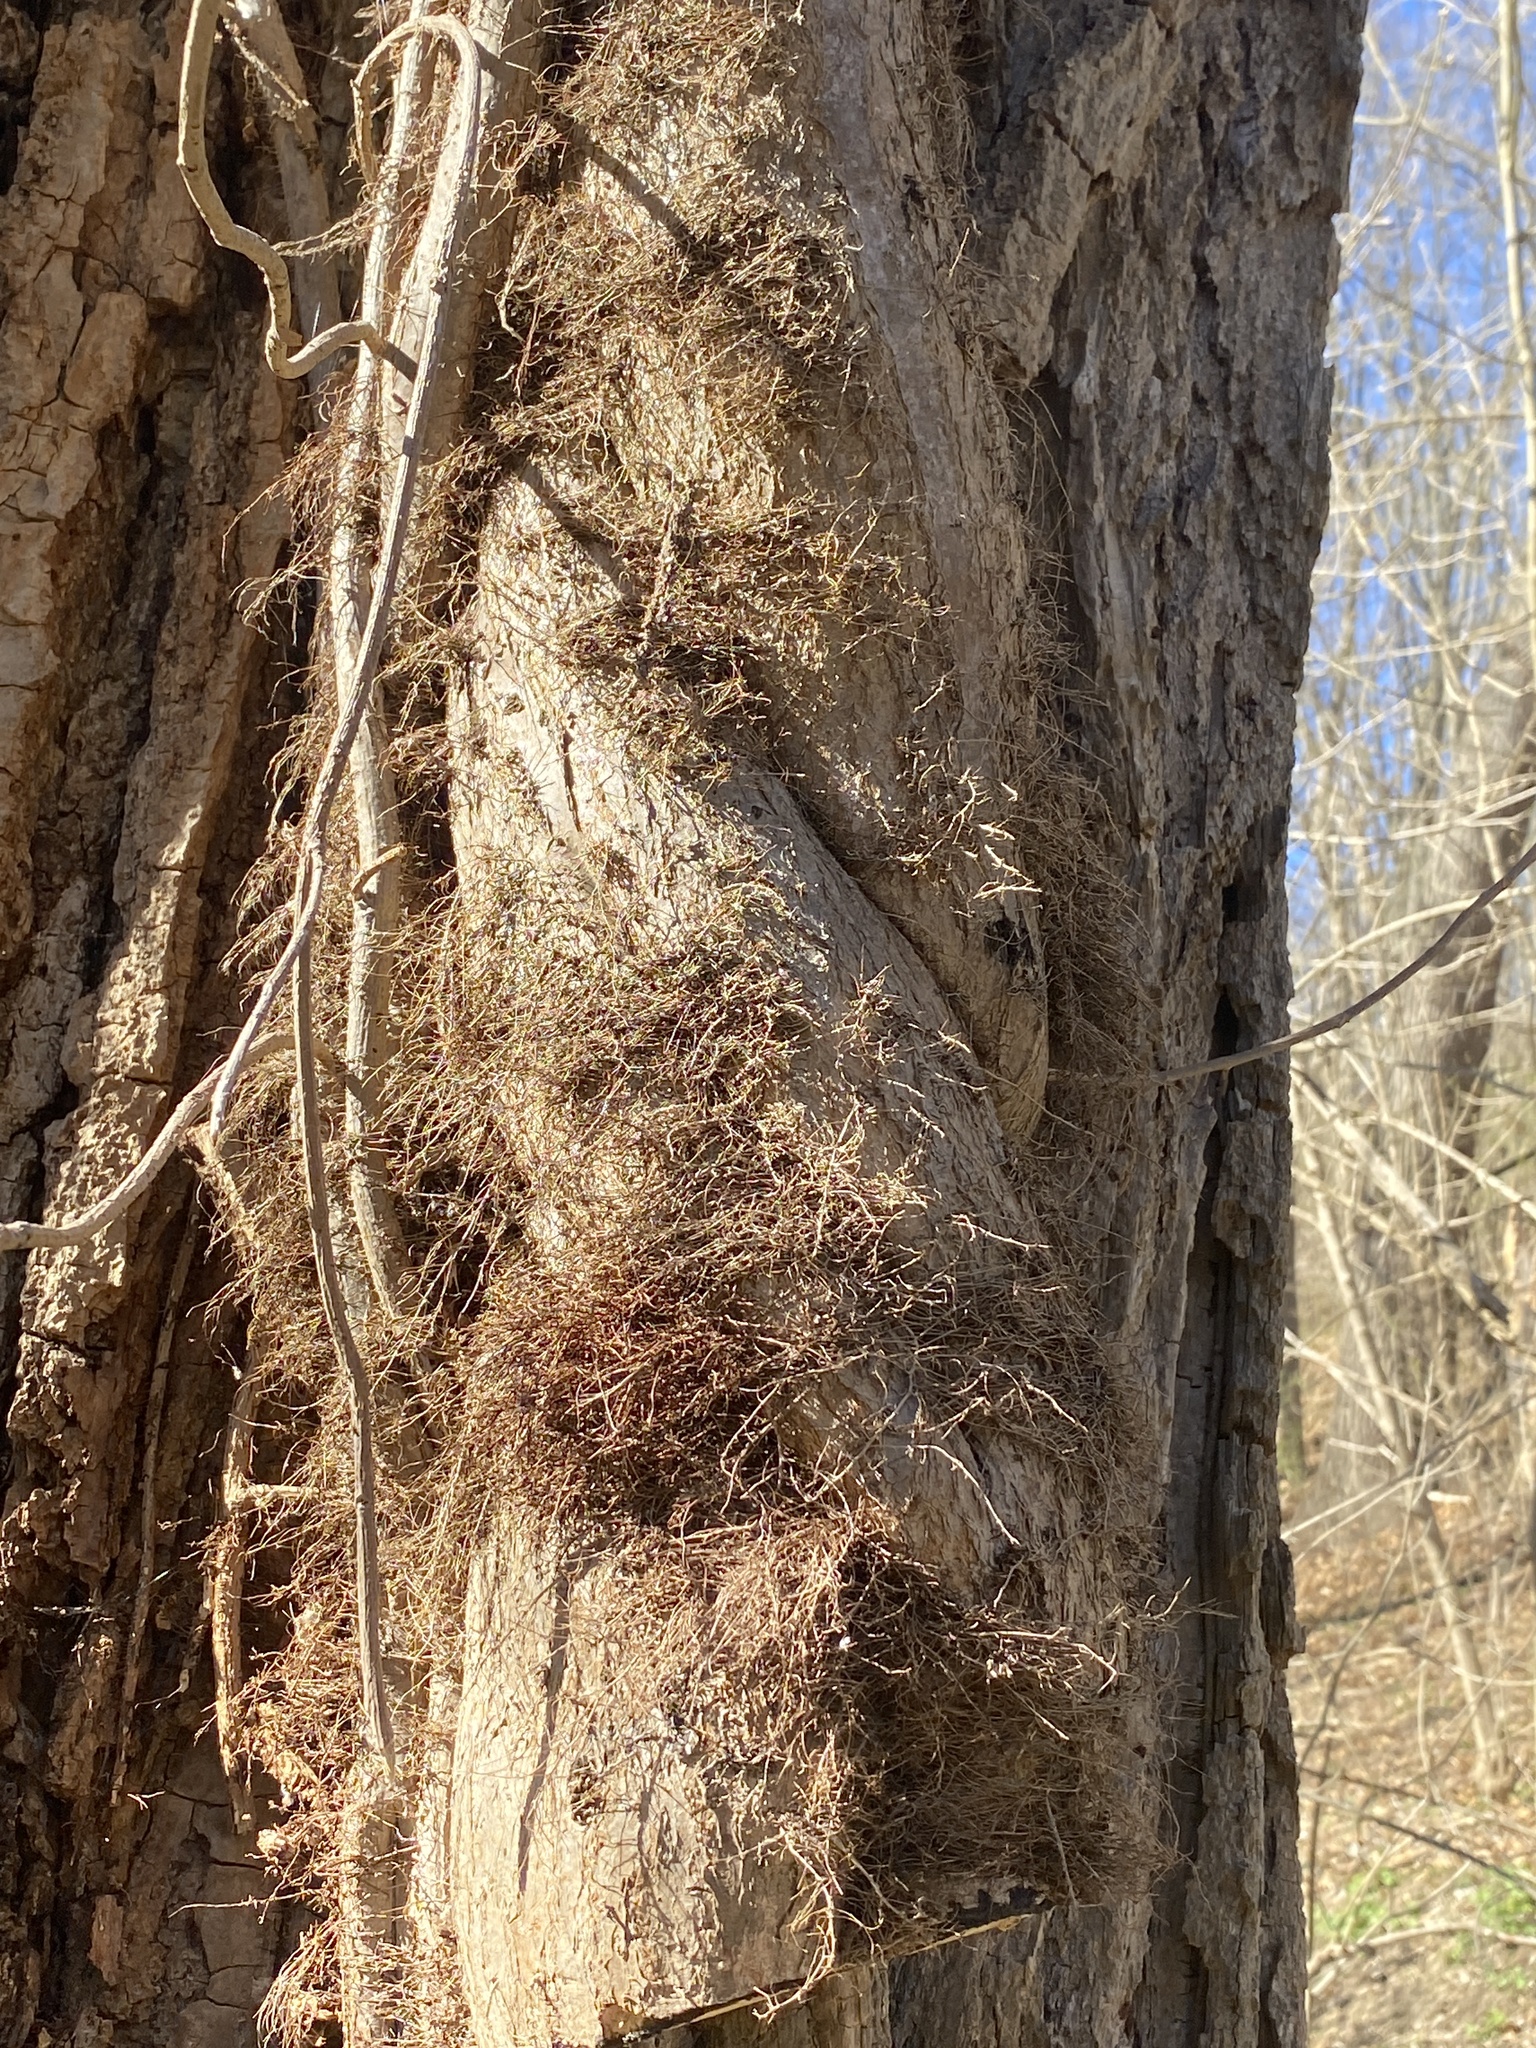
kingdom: Plantae
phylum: Tracheophyta
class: Magnoliopsida
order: Sapindales
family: Anacardiaceae
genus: Toxicodendron
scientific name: Toxicodendron radicans
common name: Poison ivy
